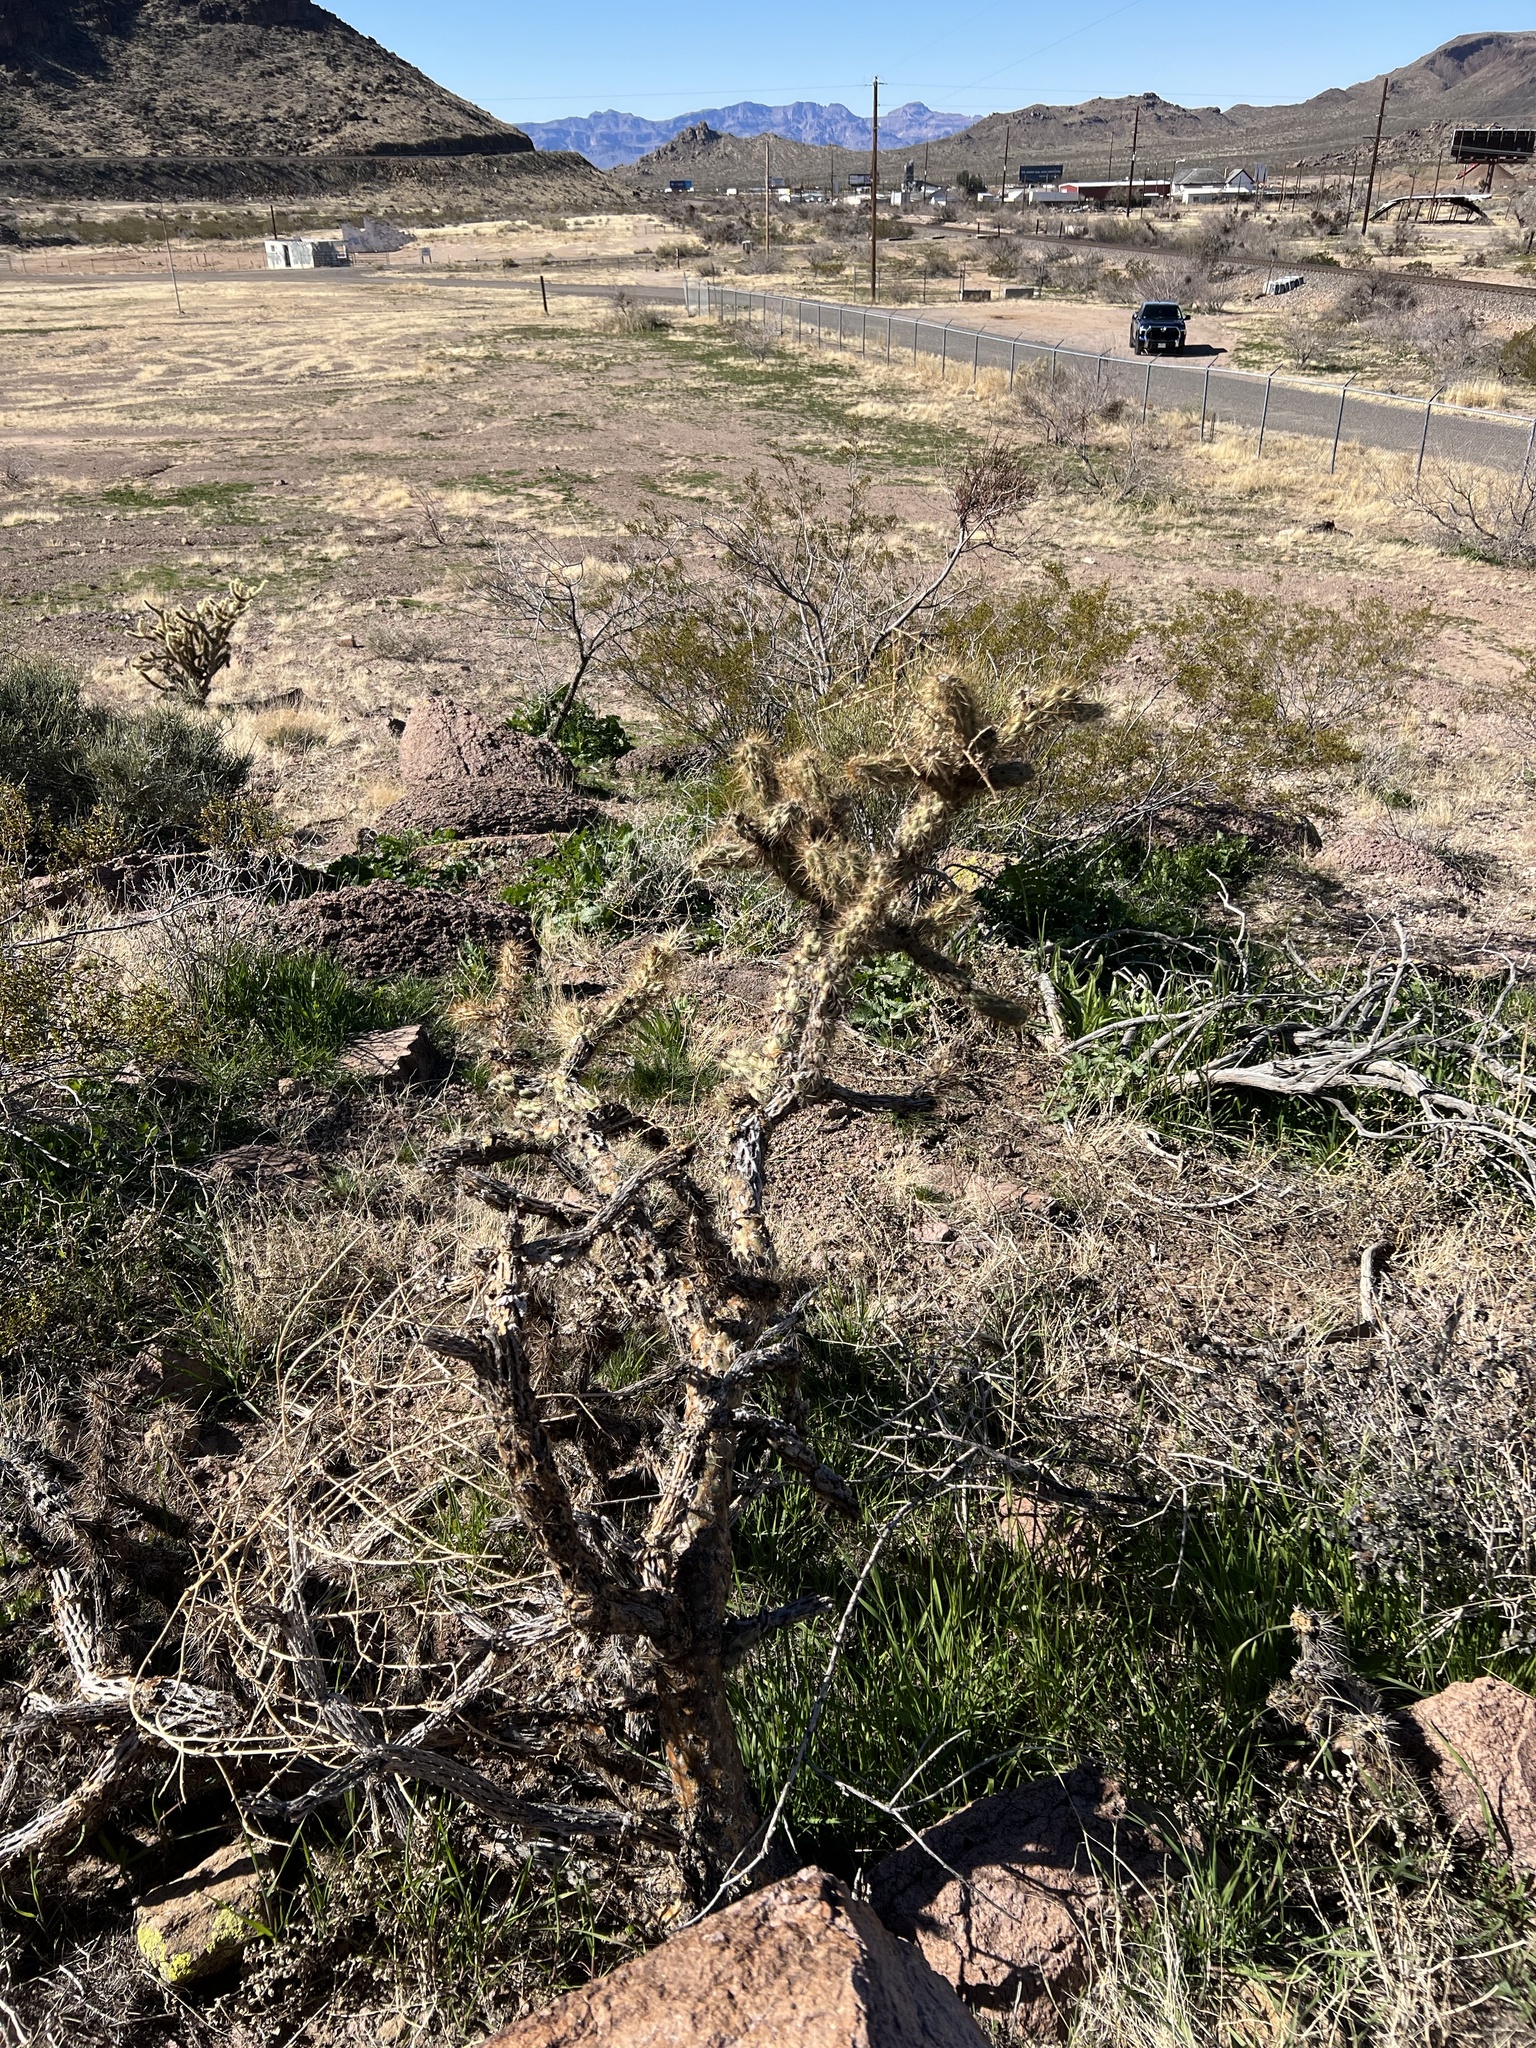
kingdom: Plantae
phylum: Tracheophyta
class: Magnoliopsida
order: Caryophyllales
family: Cactaceae
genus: Cylindropuntia
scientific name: Cylindropuntia acanthocarpa
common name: Buckhorn cholla
